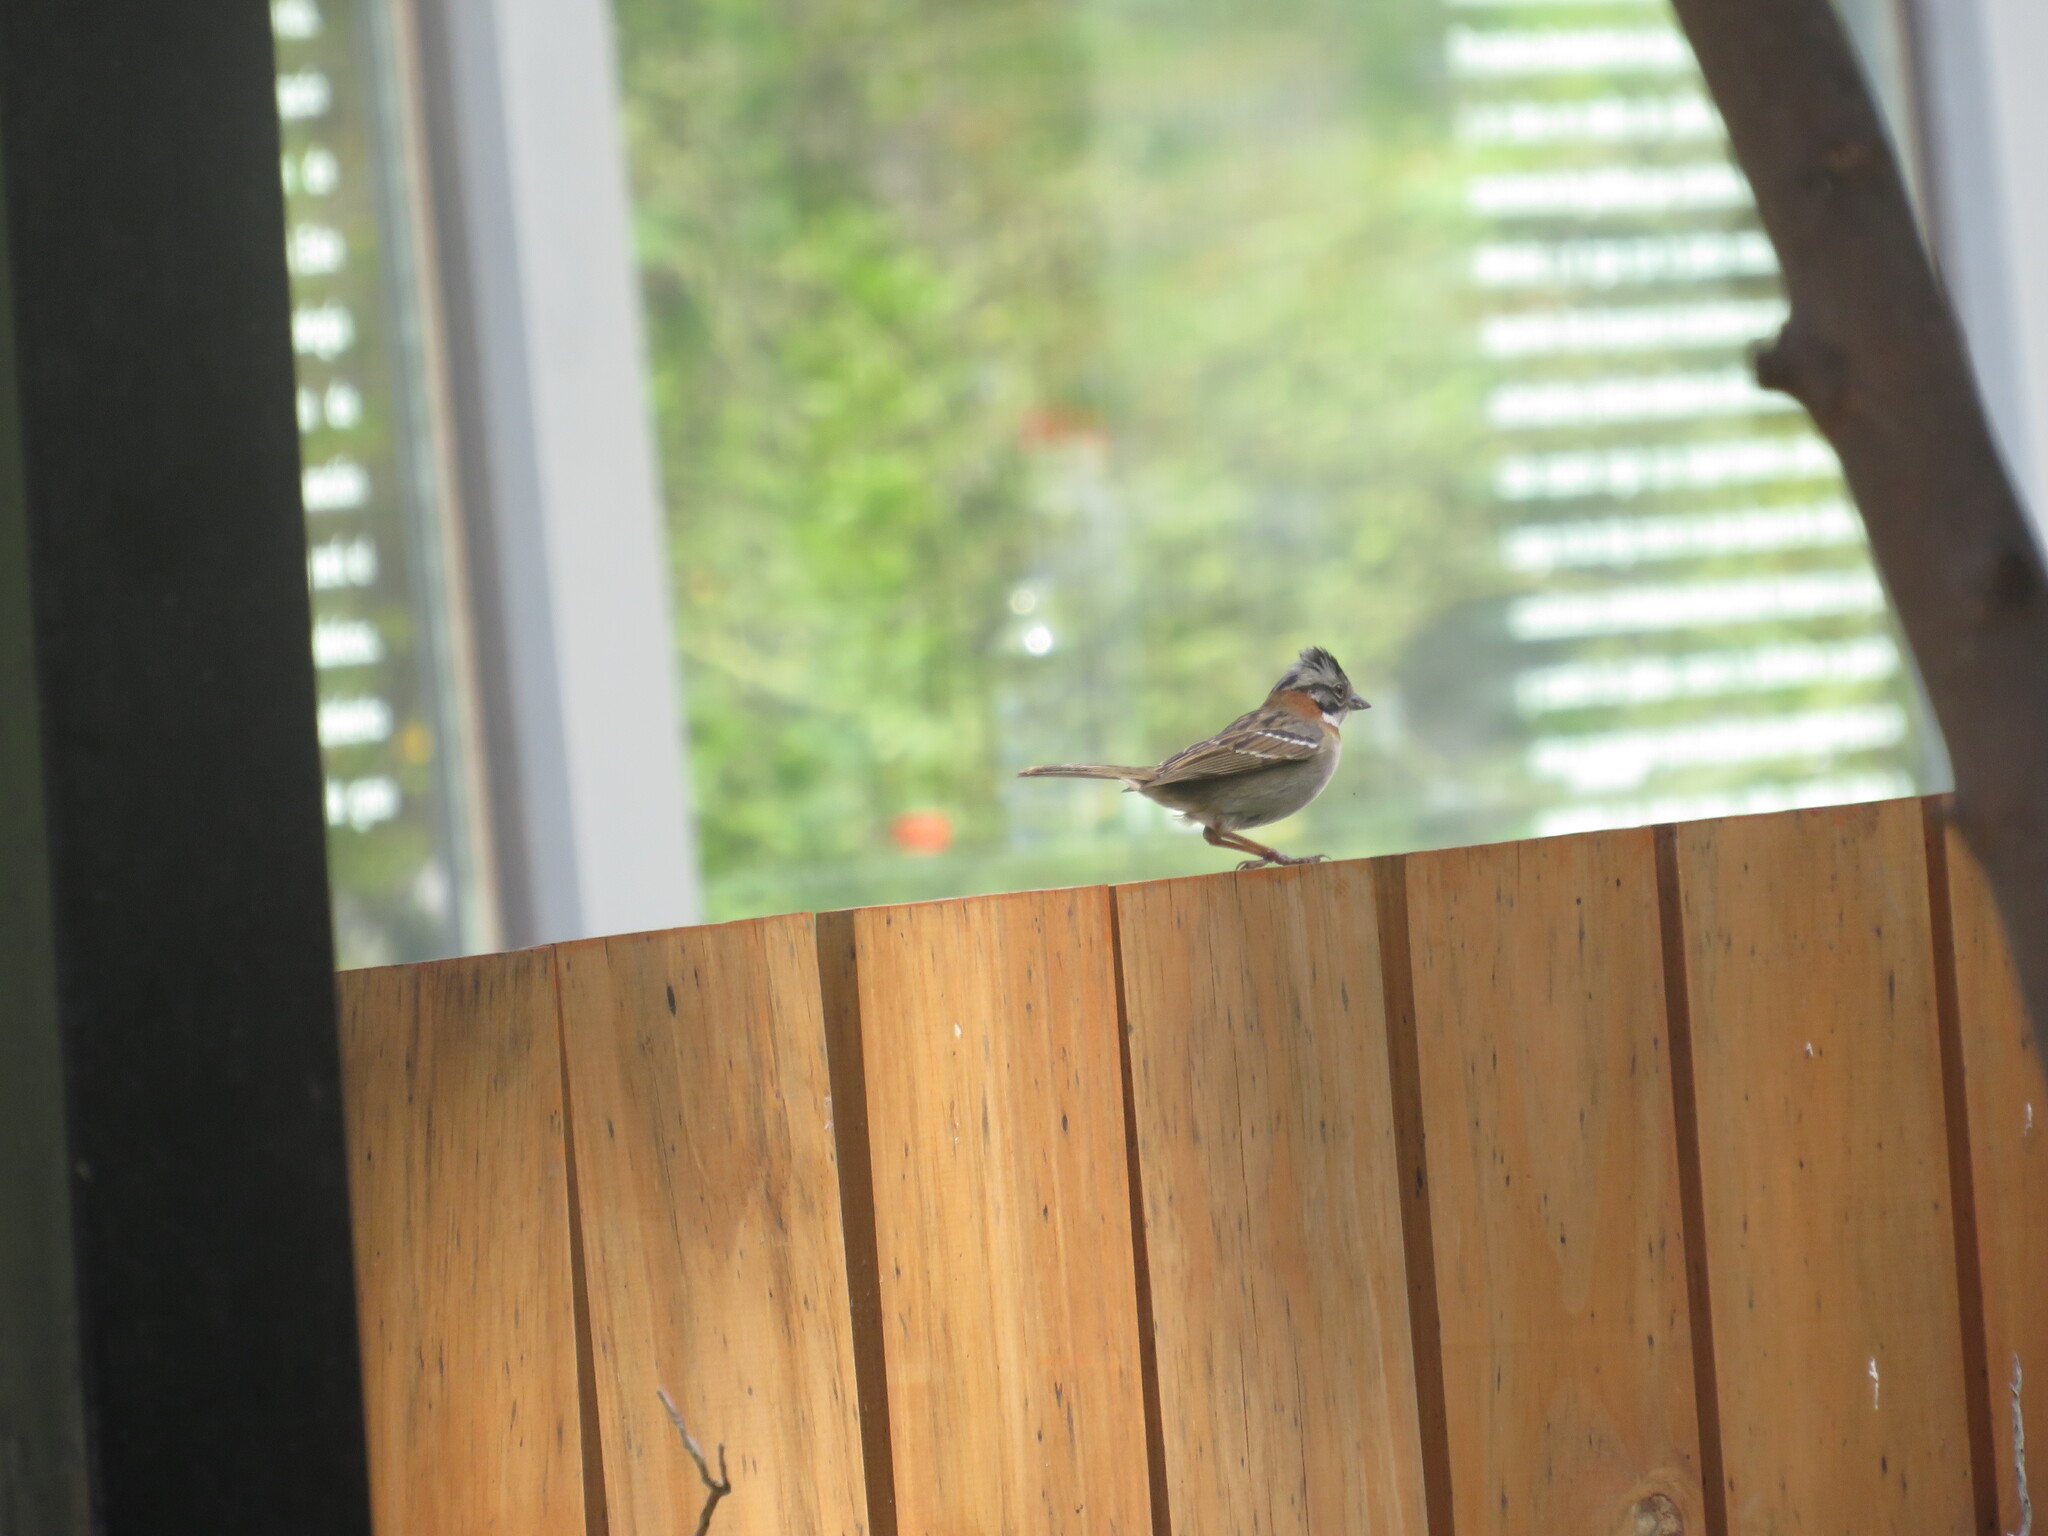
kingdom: Animalia
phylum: Chordata
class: Aves
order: Passeriformes
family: Passerellidae
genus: Zonotrichia
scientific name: Zonotrichia capensis
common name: Rufous-collared sparrow
